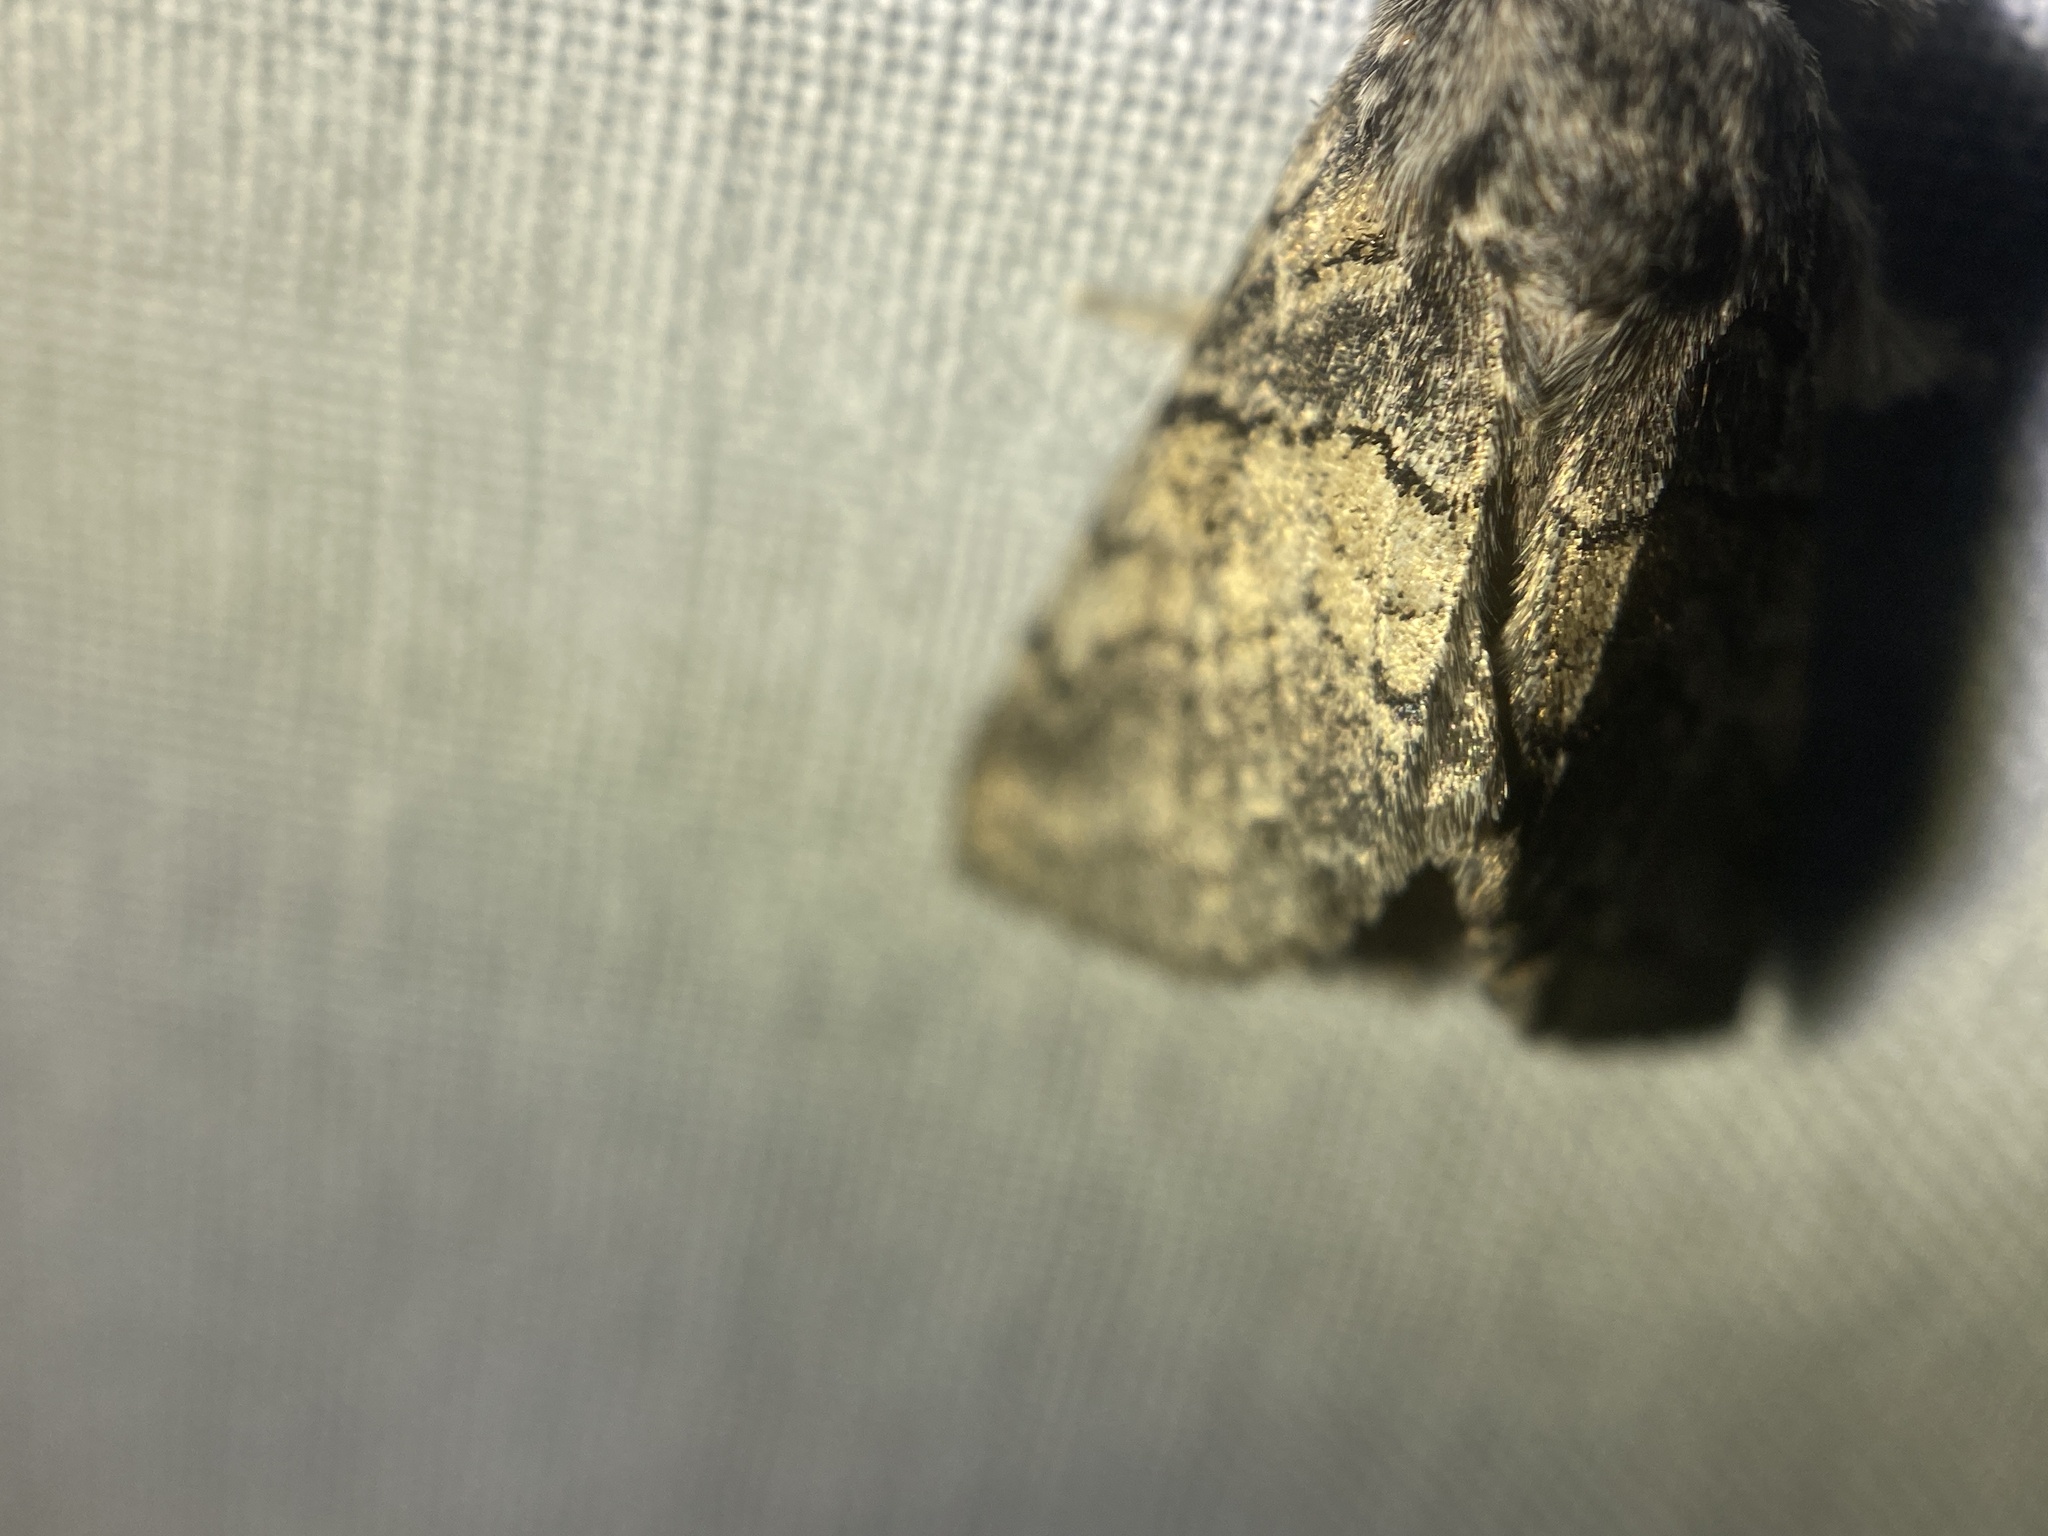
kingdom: Animalia
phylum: Arthropoda
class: Insecta
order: Lepidoptera
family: Notodontidae
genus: Gluphisia
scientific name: Gluphisia septentrionis
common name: Common gluphisia
